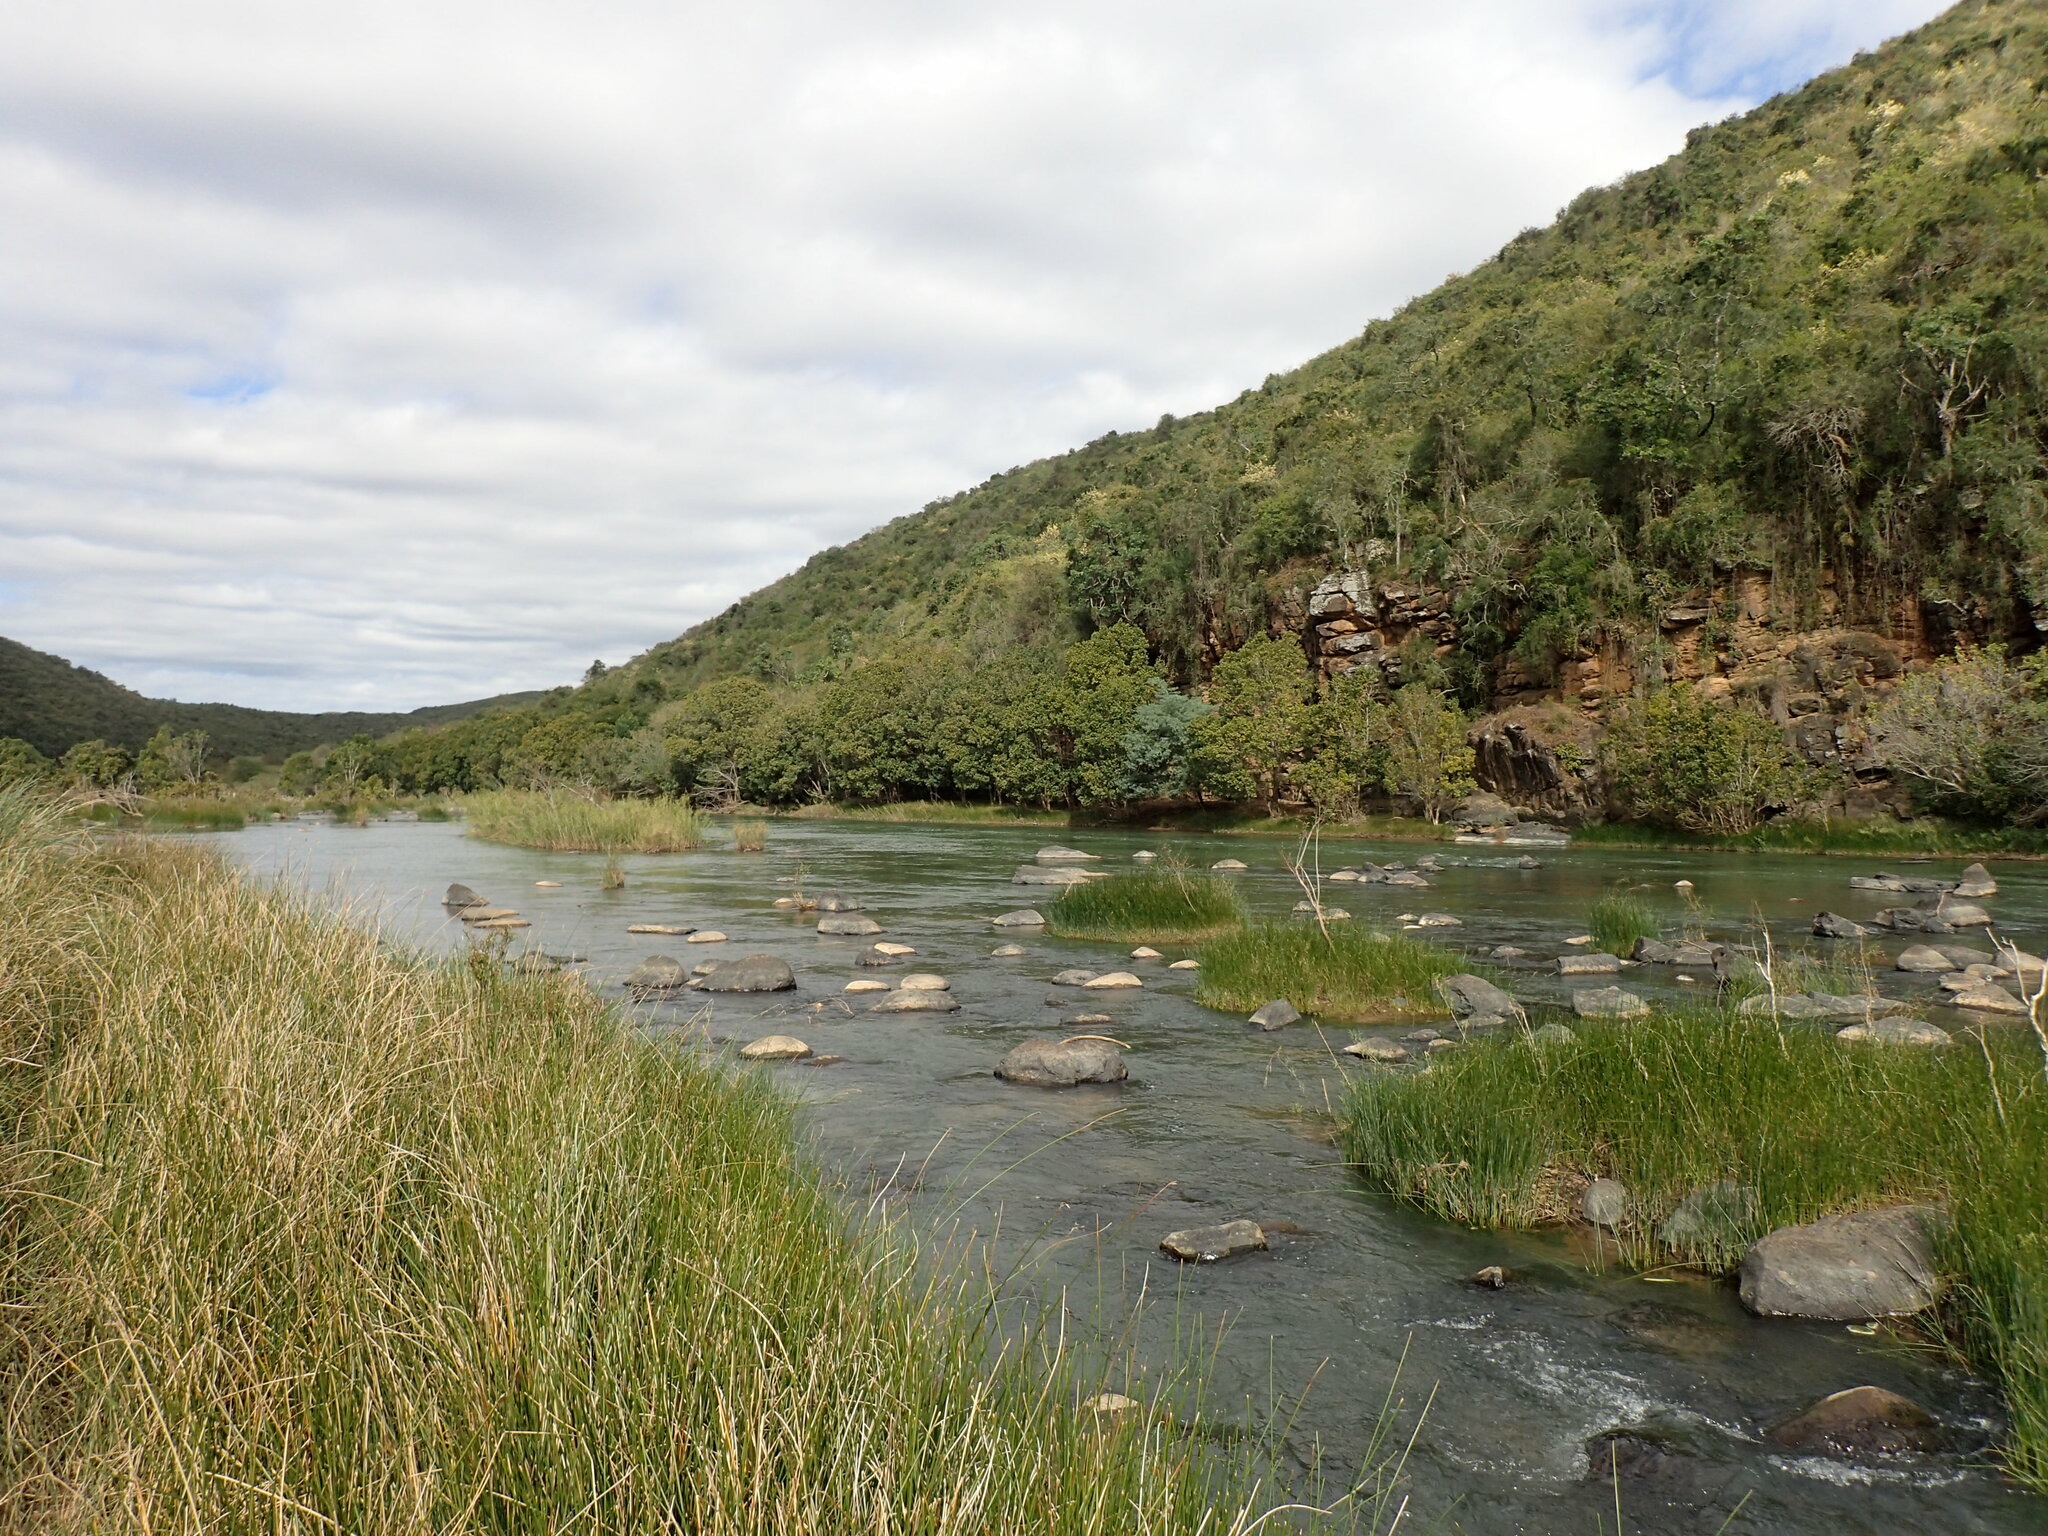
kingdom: Plantae
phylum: Tracheophyta
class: Liliopsida
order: Asparagales
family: Asphodelaceae
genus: Aloe
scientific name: Aloe ferox
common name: Bitter aloe
